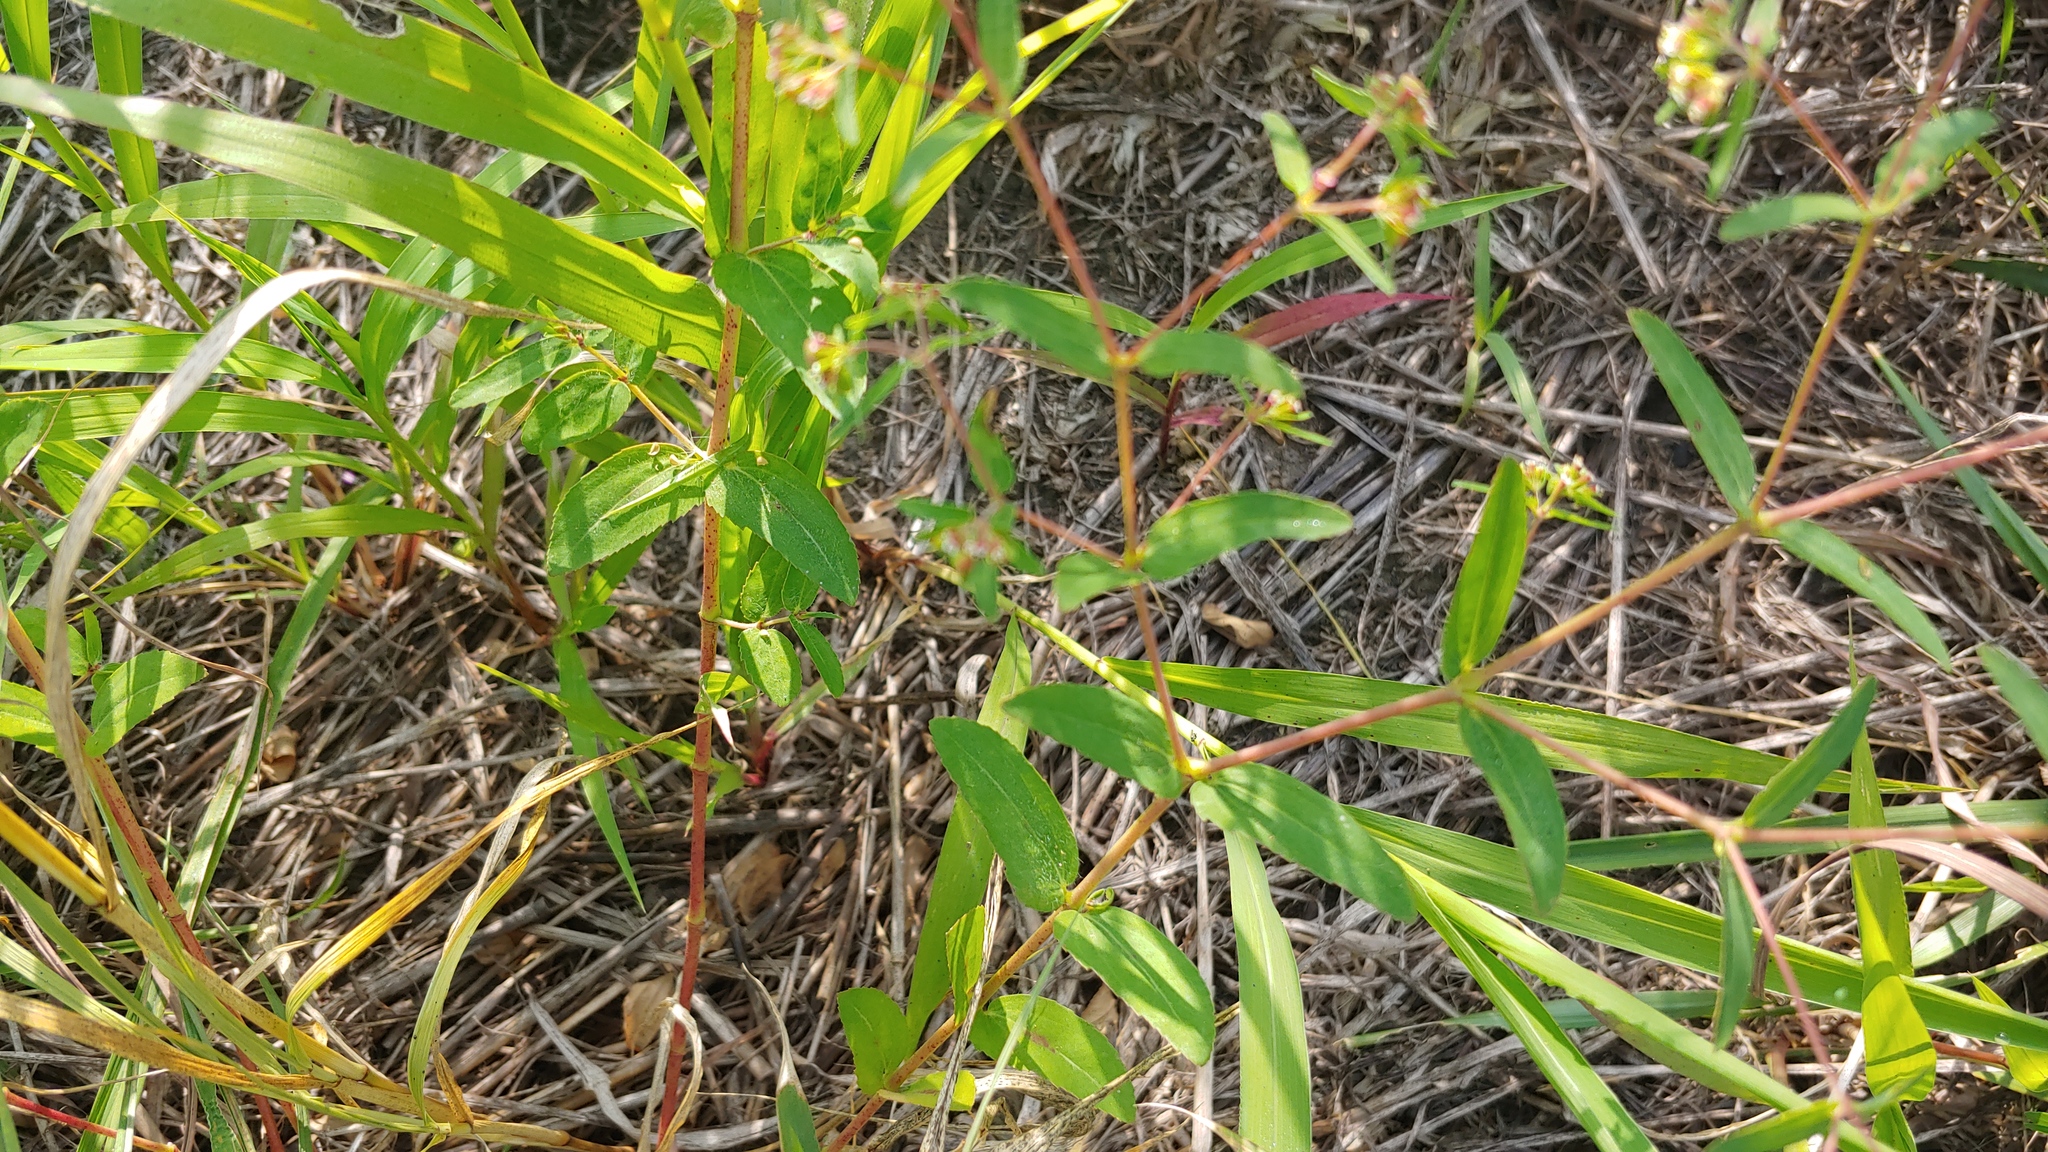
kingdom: Plantae
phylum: Tracheophyta
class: Magnoliopsida
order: Malpighiales
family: Euphorbiaceae
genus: Euphorbia
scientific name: Euphorbia nutans
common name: Eyebane
